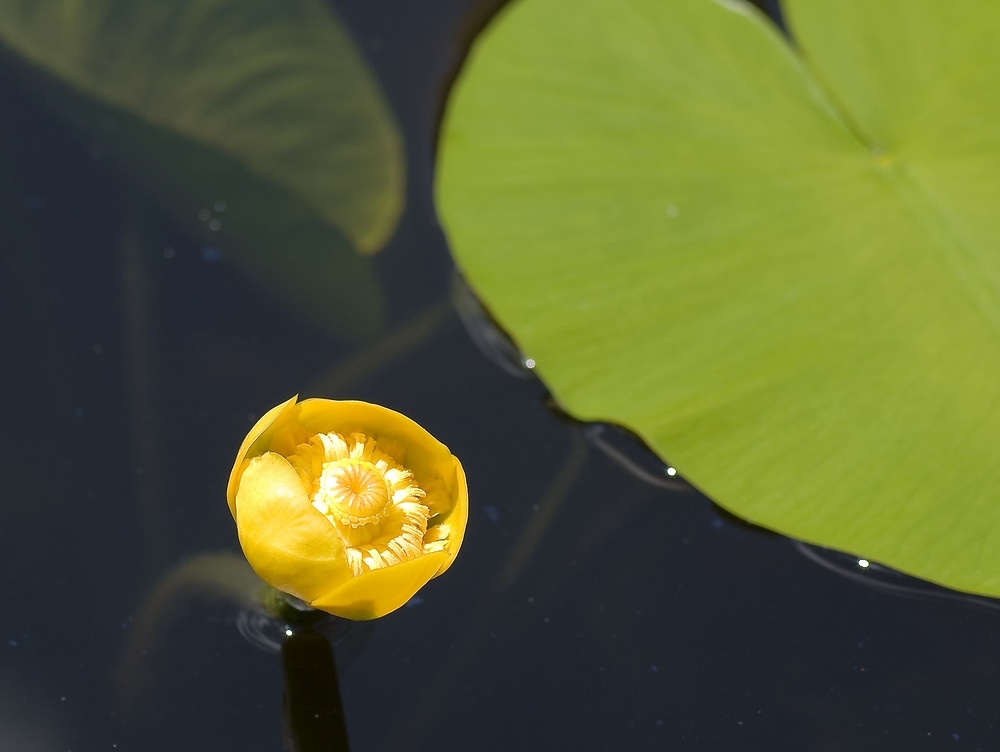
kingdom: Plantae
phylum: Tracheophyta
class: Magnoliopsida
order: Nymphaeales
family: Nymphaeaceae
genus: Nuphar
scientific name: Nuphar lutea
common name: Yellow water-lily
